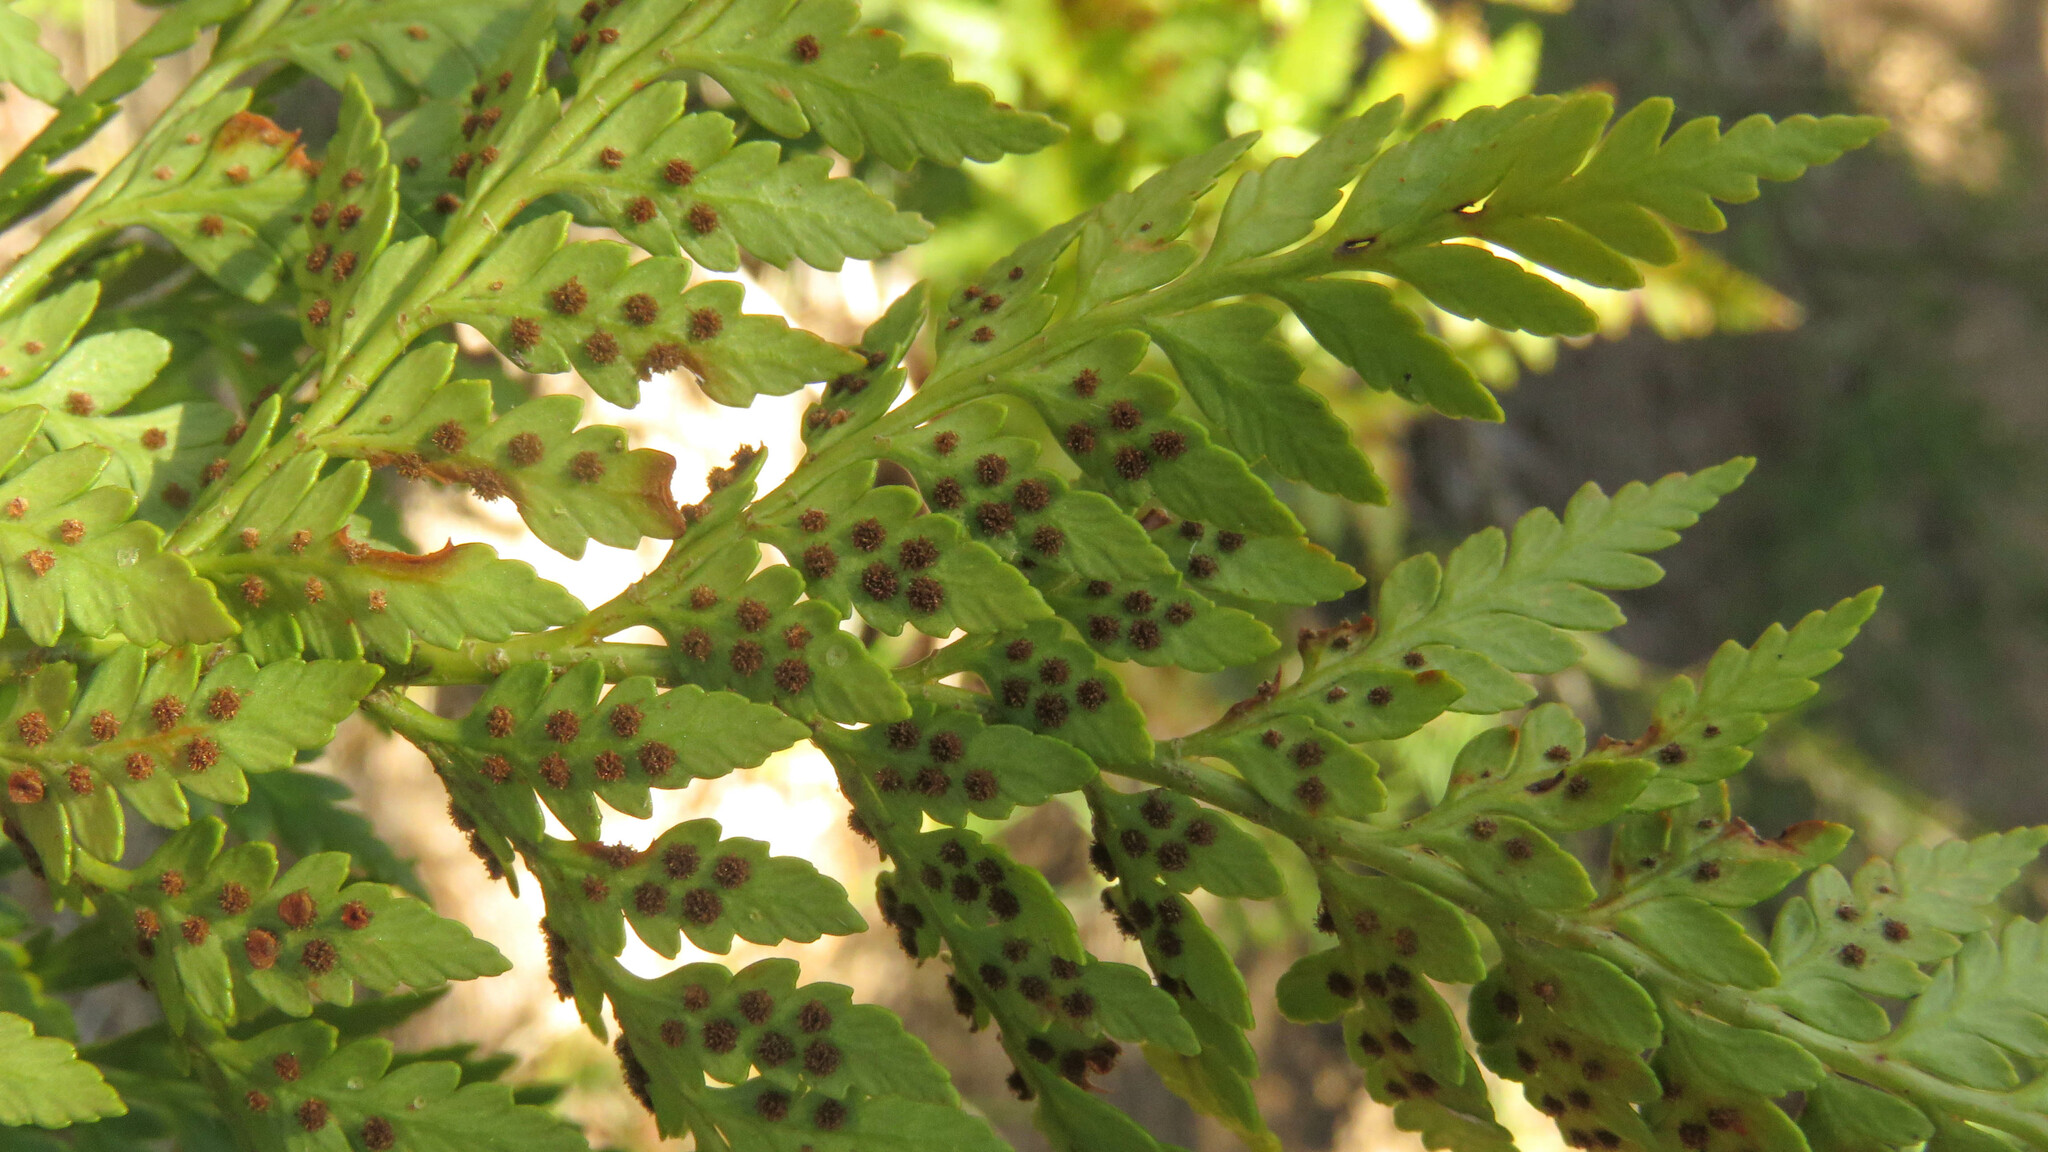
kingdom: Plantae
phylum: Tracheophyta
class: Polypodiopsida
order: Polypodiales
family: Dryopteridaceae
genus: Rumohra
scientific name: Rumohra adiantiformis
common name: Leather fern
